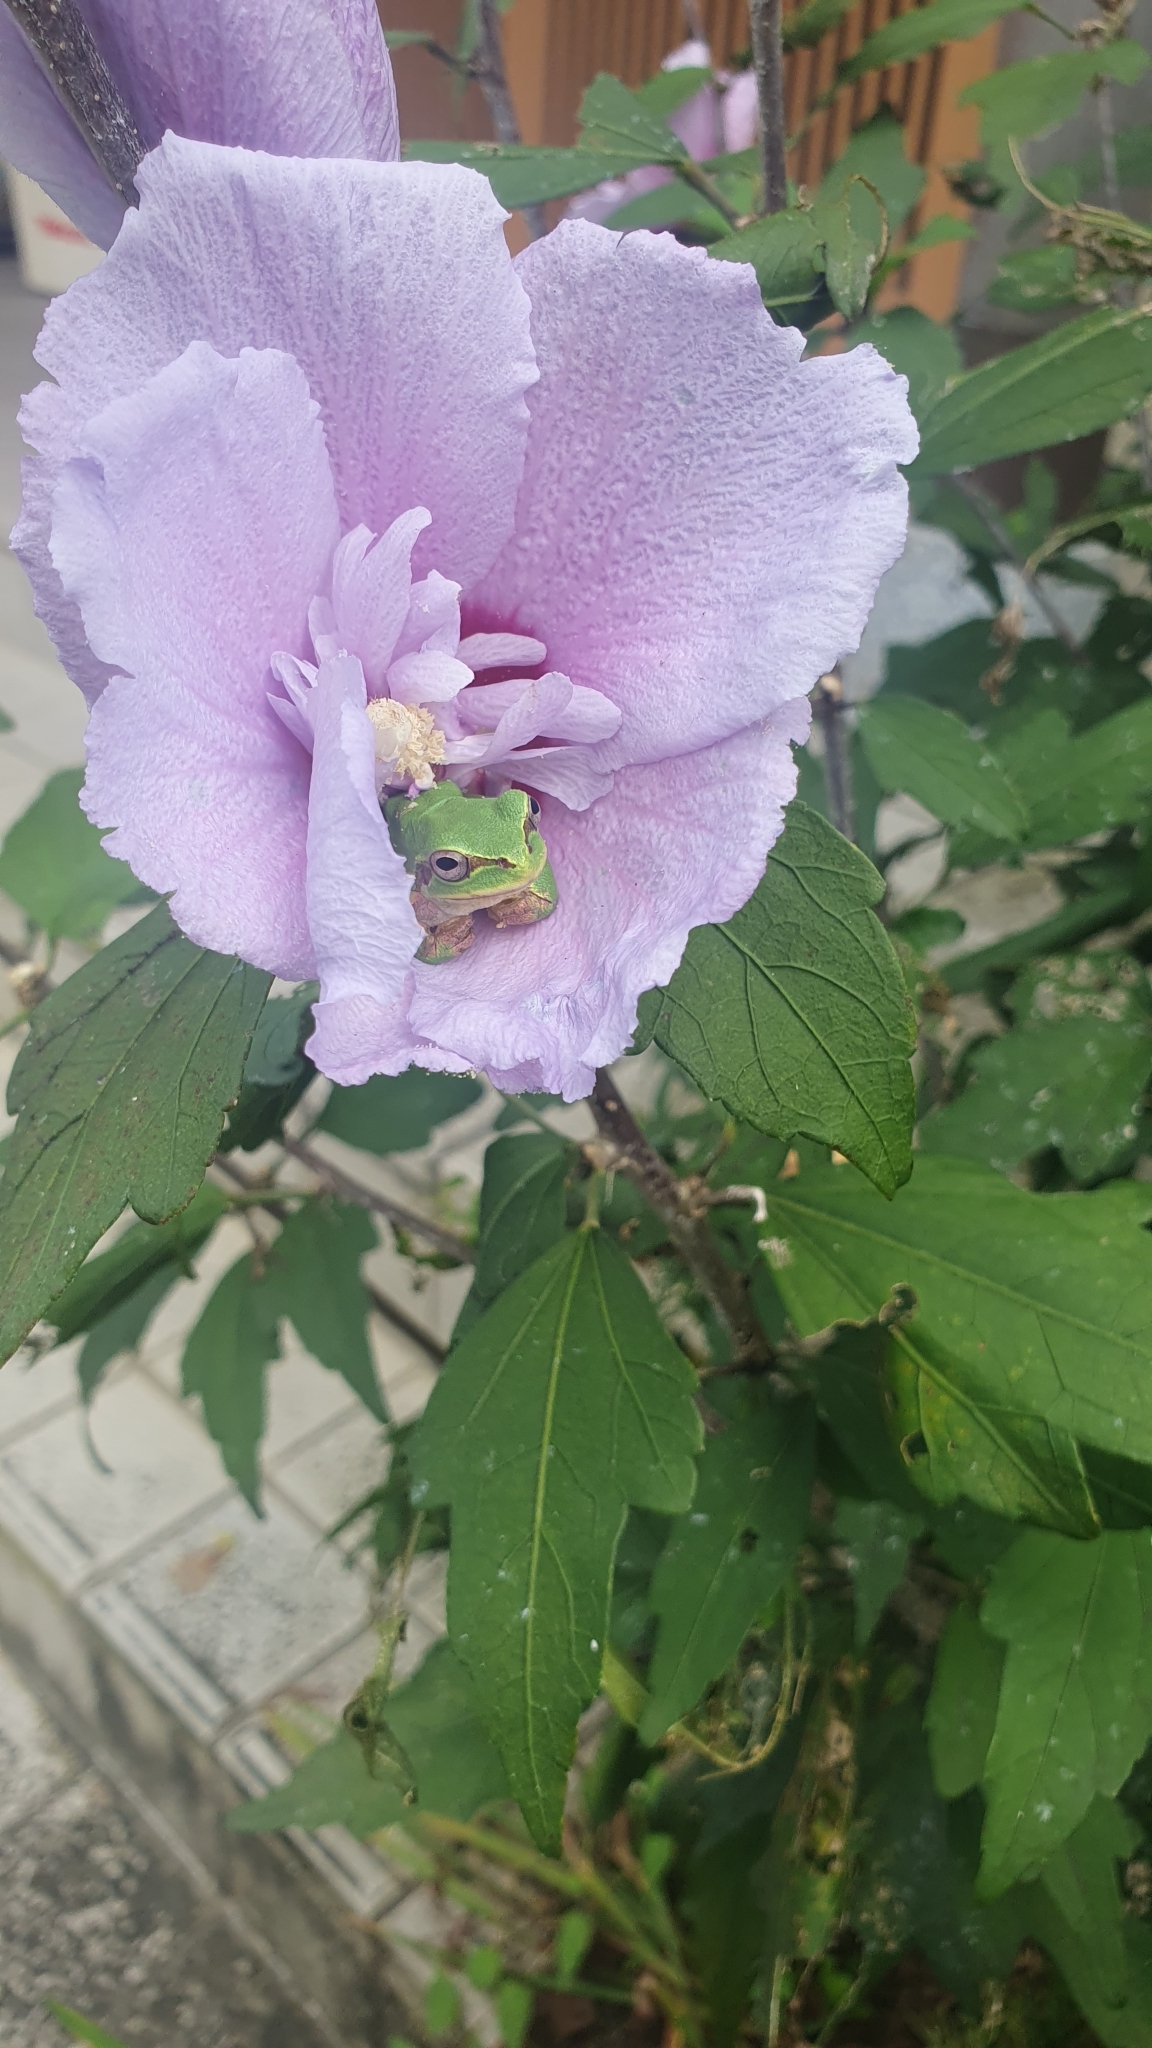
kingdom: Animalia
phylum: Chordata
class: Amphibia
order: Anura
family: Hylidae
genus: Dryophytes
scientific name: Dryophytes japonicus
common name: Japanese treefrog
